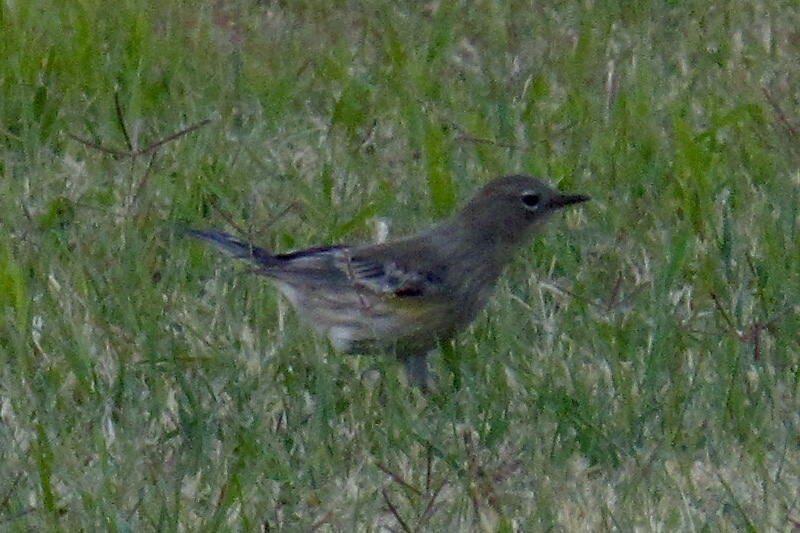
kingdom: Animalia
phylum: Chordata
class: Aves
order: Passeriformes
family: Parulidae
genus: Setophaga
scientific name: Setophaga auduboni
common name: Audubon's warbler
